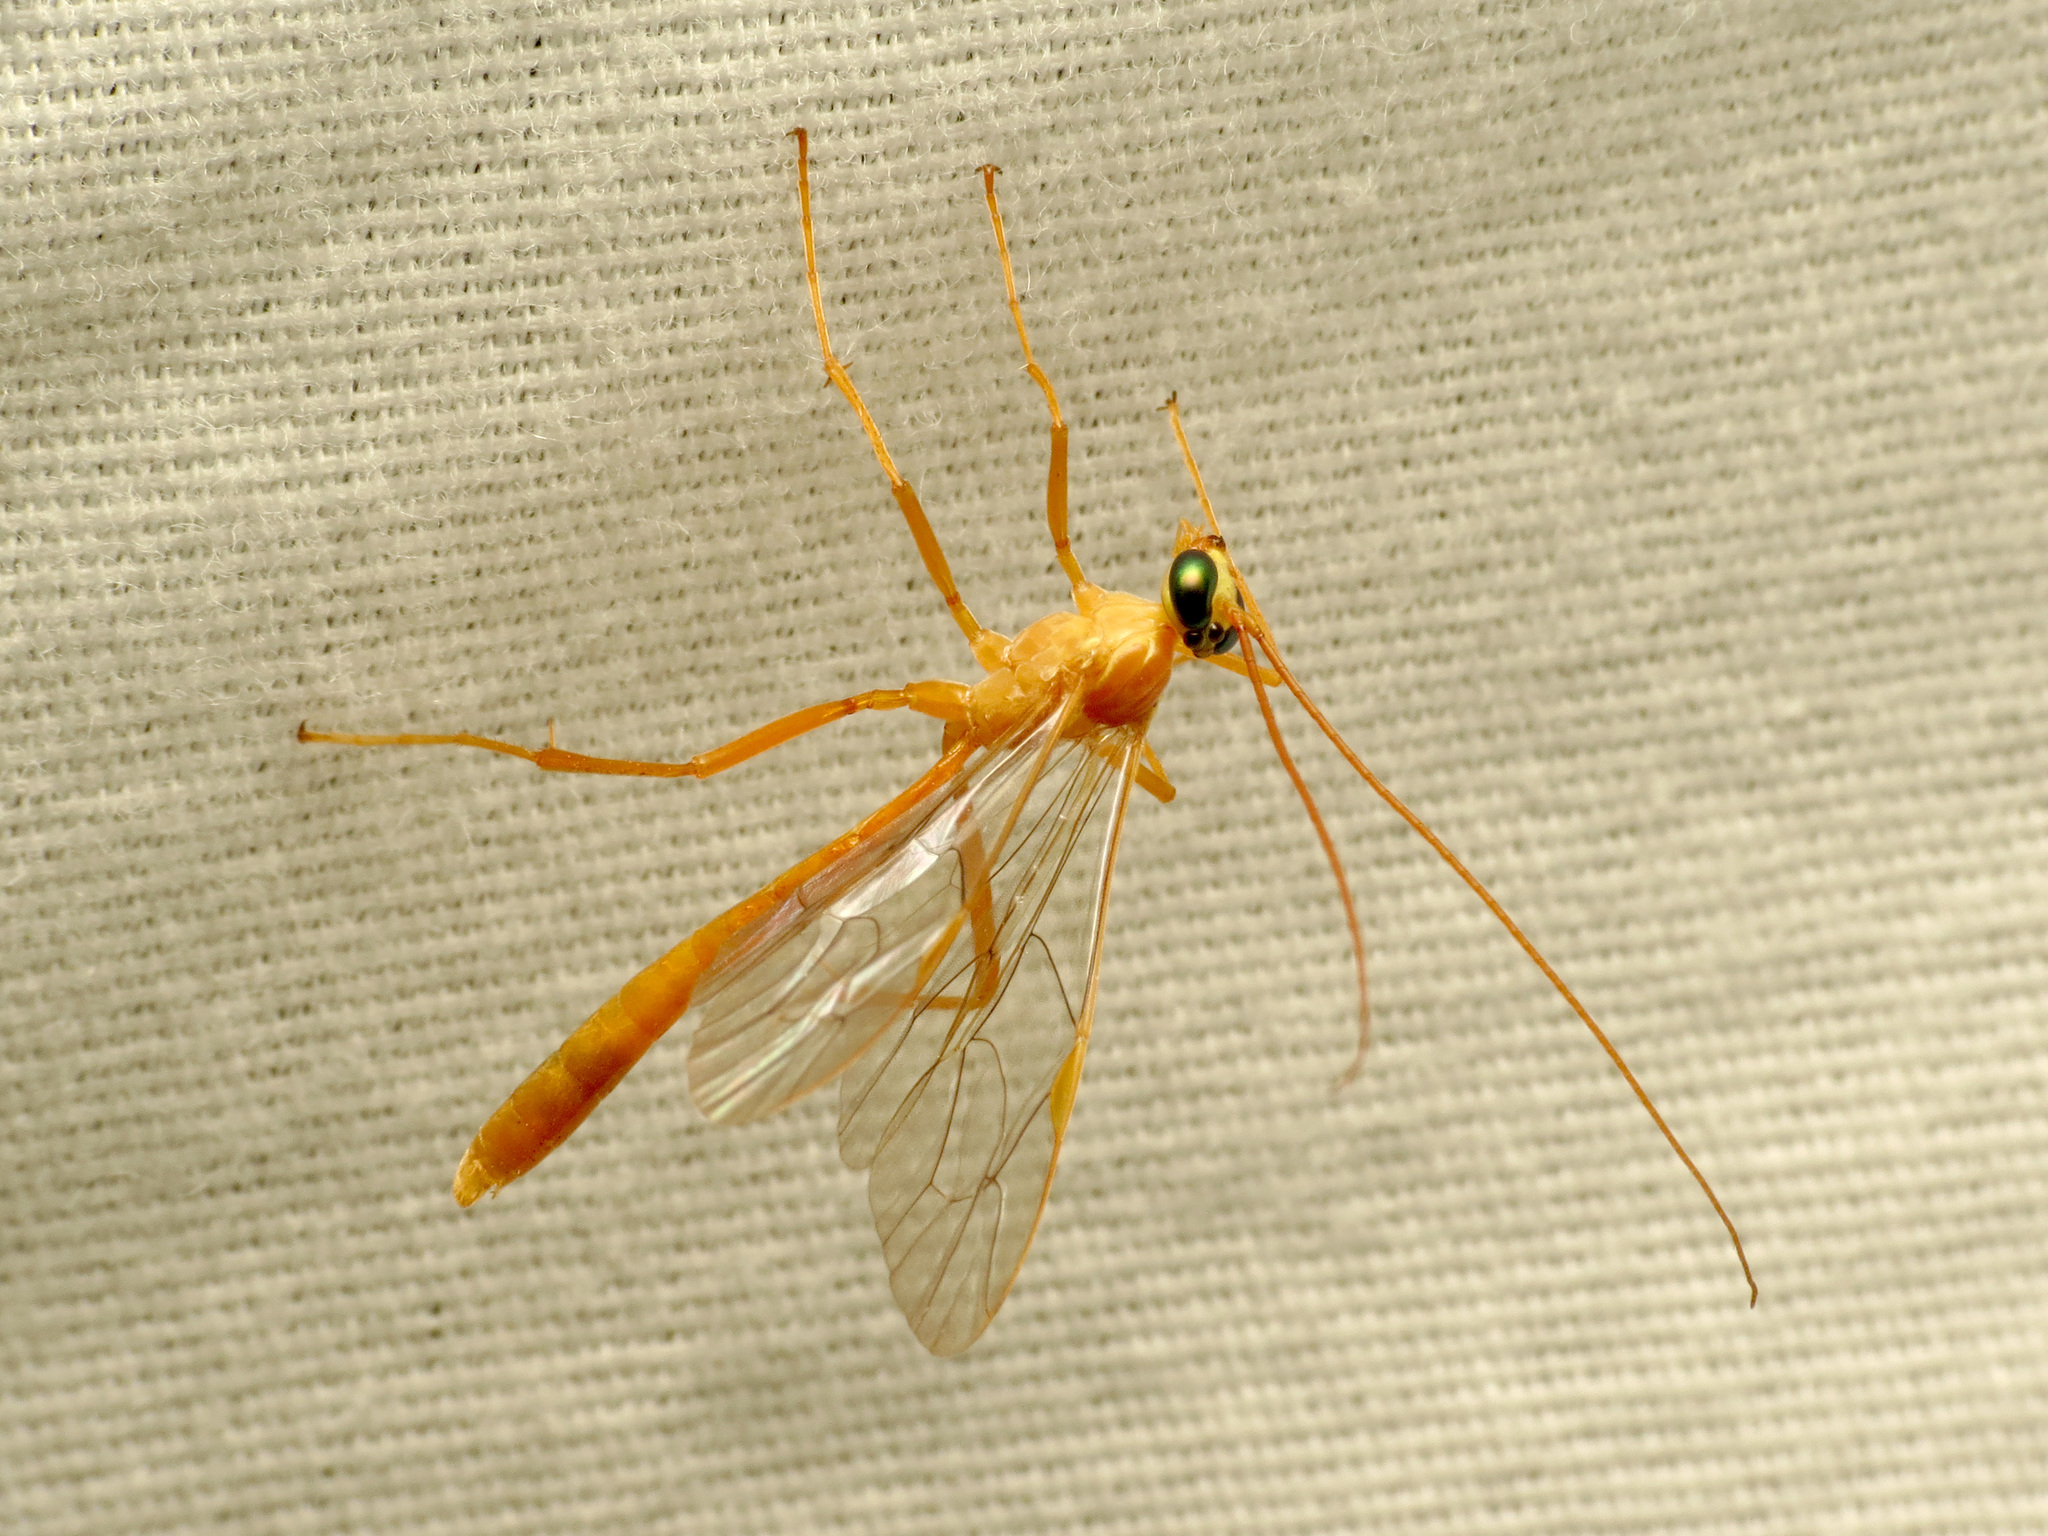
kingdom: Animalia
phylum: Arthropoda
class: Insecta
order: Hymenoptera
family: Ichneumonidae
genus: Netelia
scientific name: Netelia
